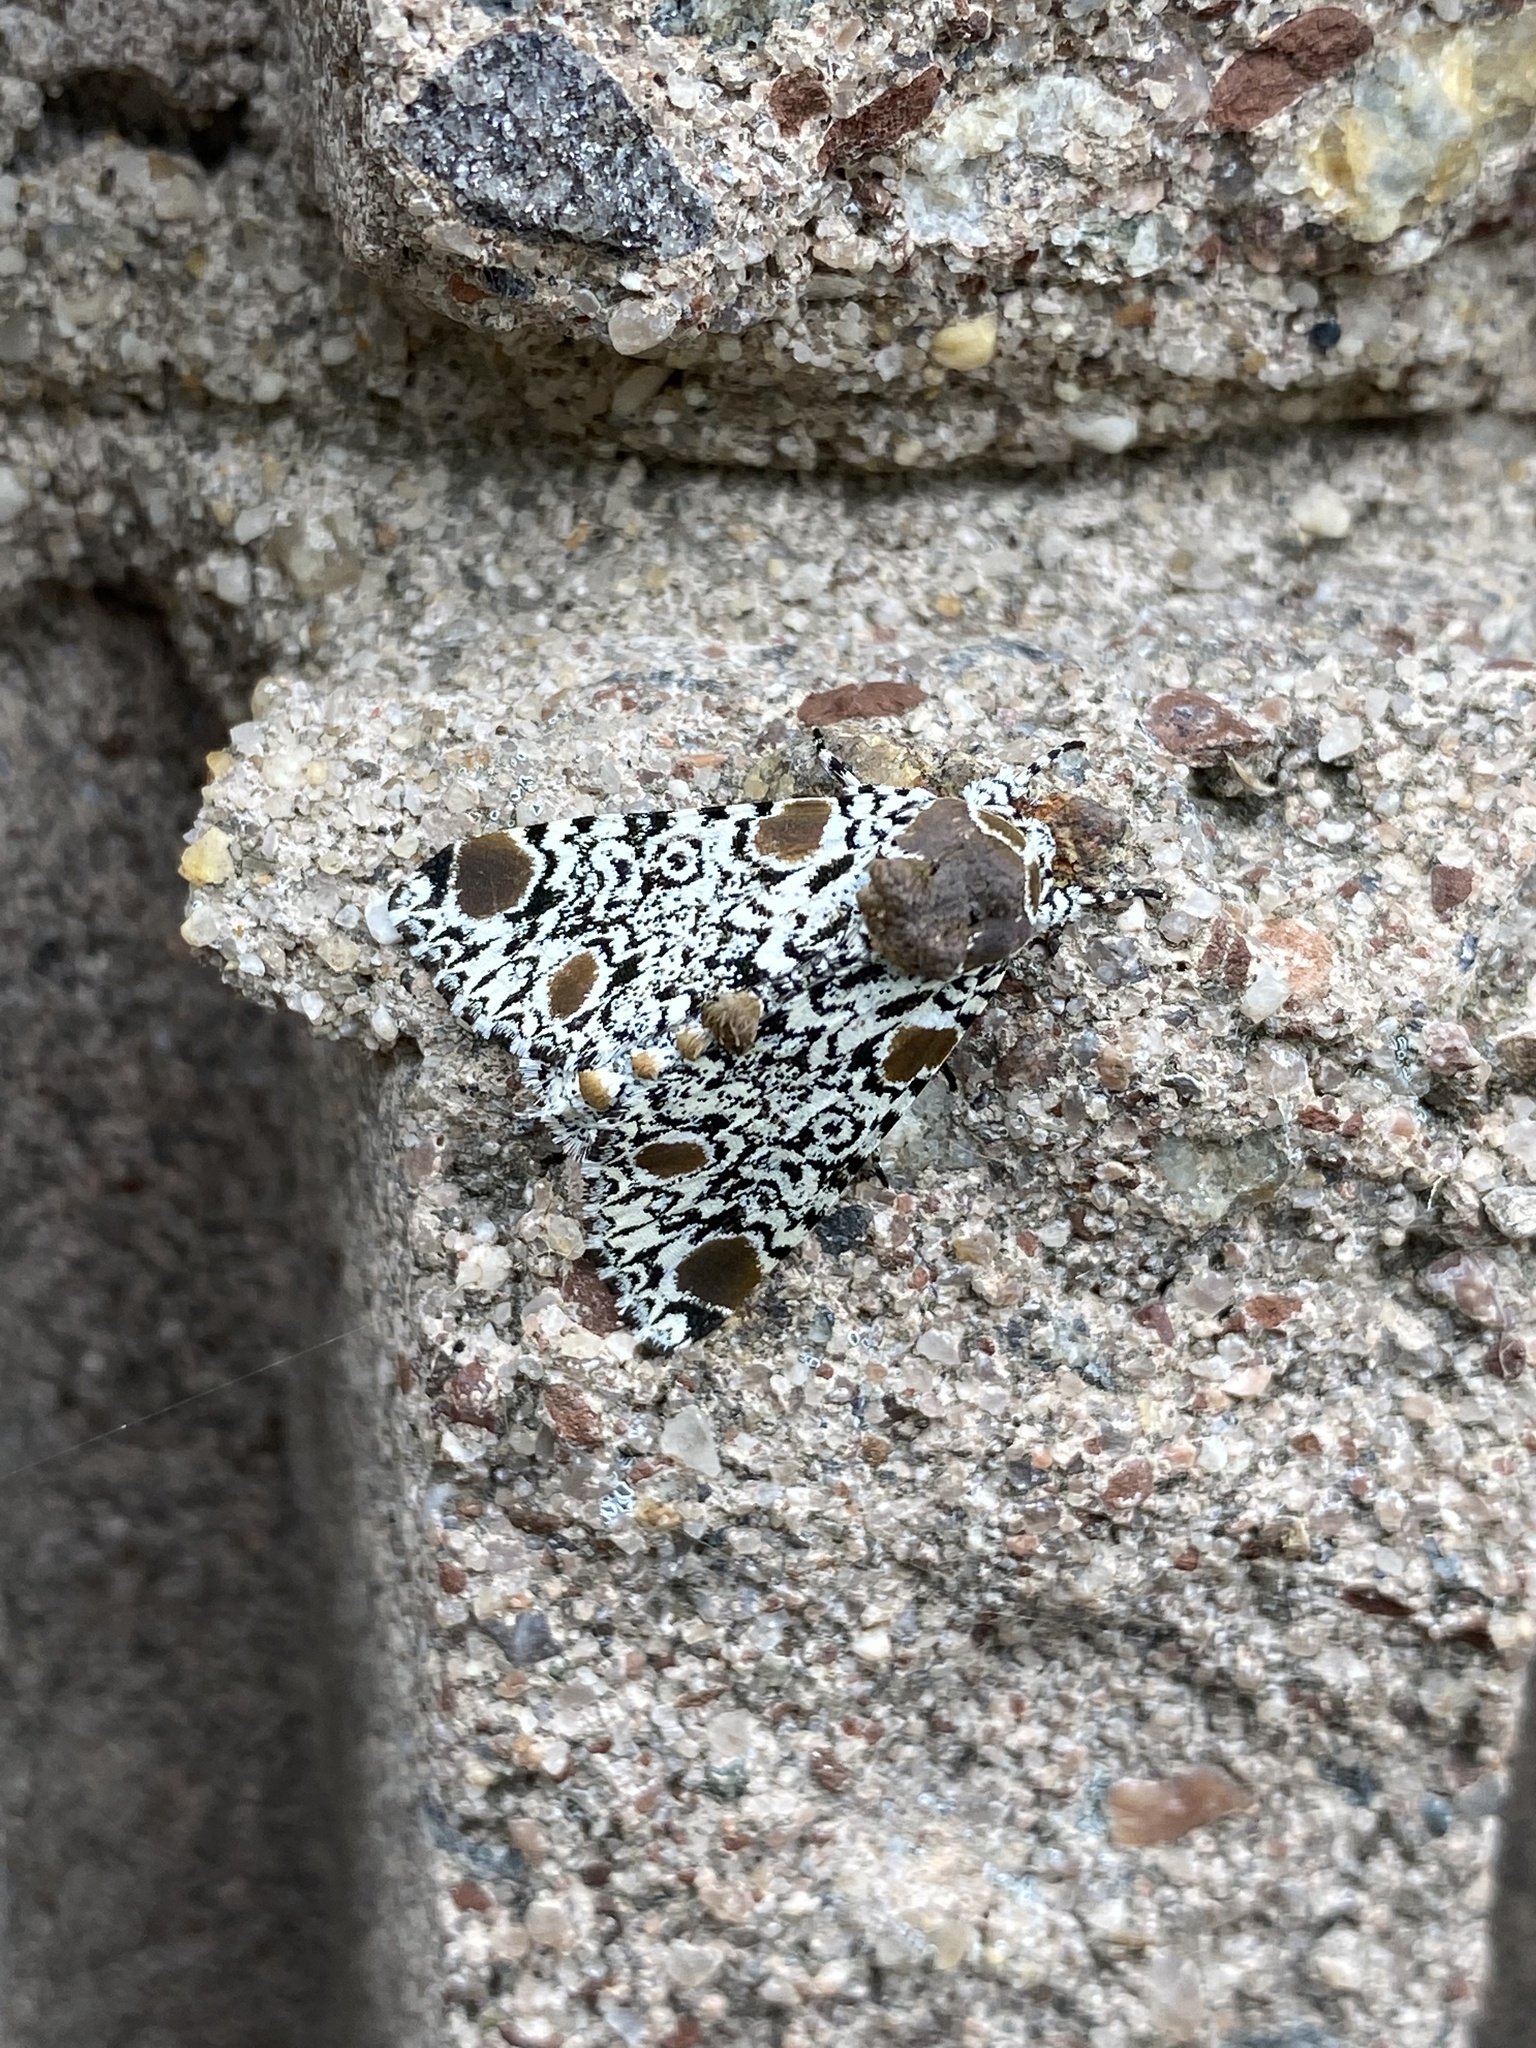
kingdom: Animalia
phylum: Arthropoda
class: Insecta
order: Lepidoptera
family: Noctuidae
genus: Harrisimemna
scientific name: Harrisimemna trisignata
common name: Harris threespot
